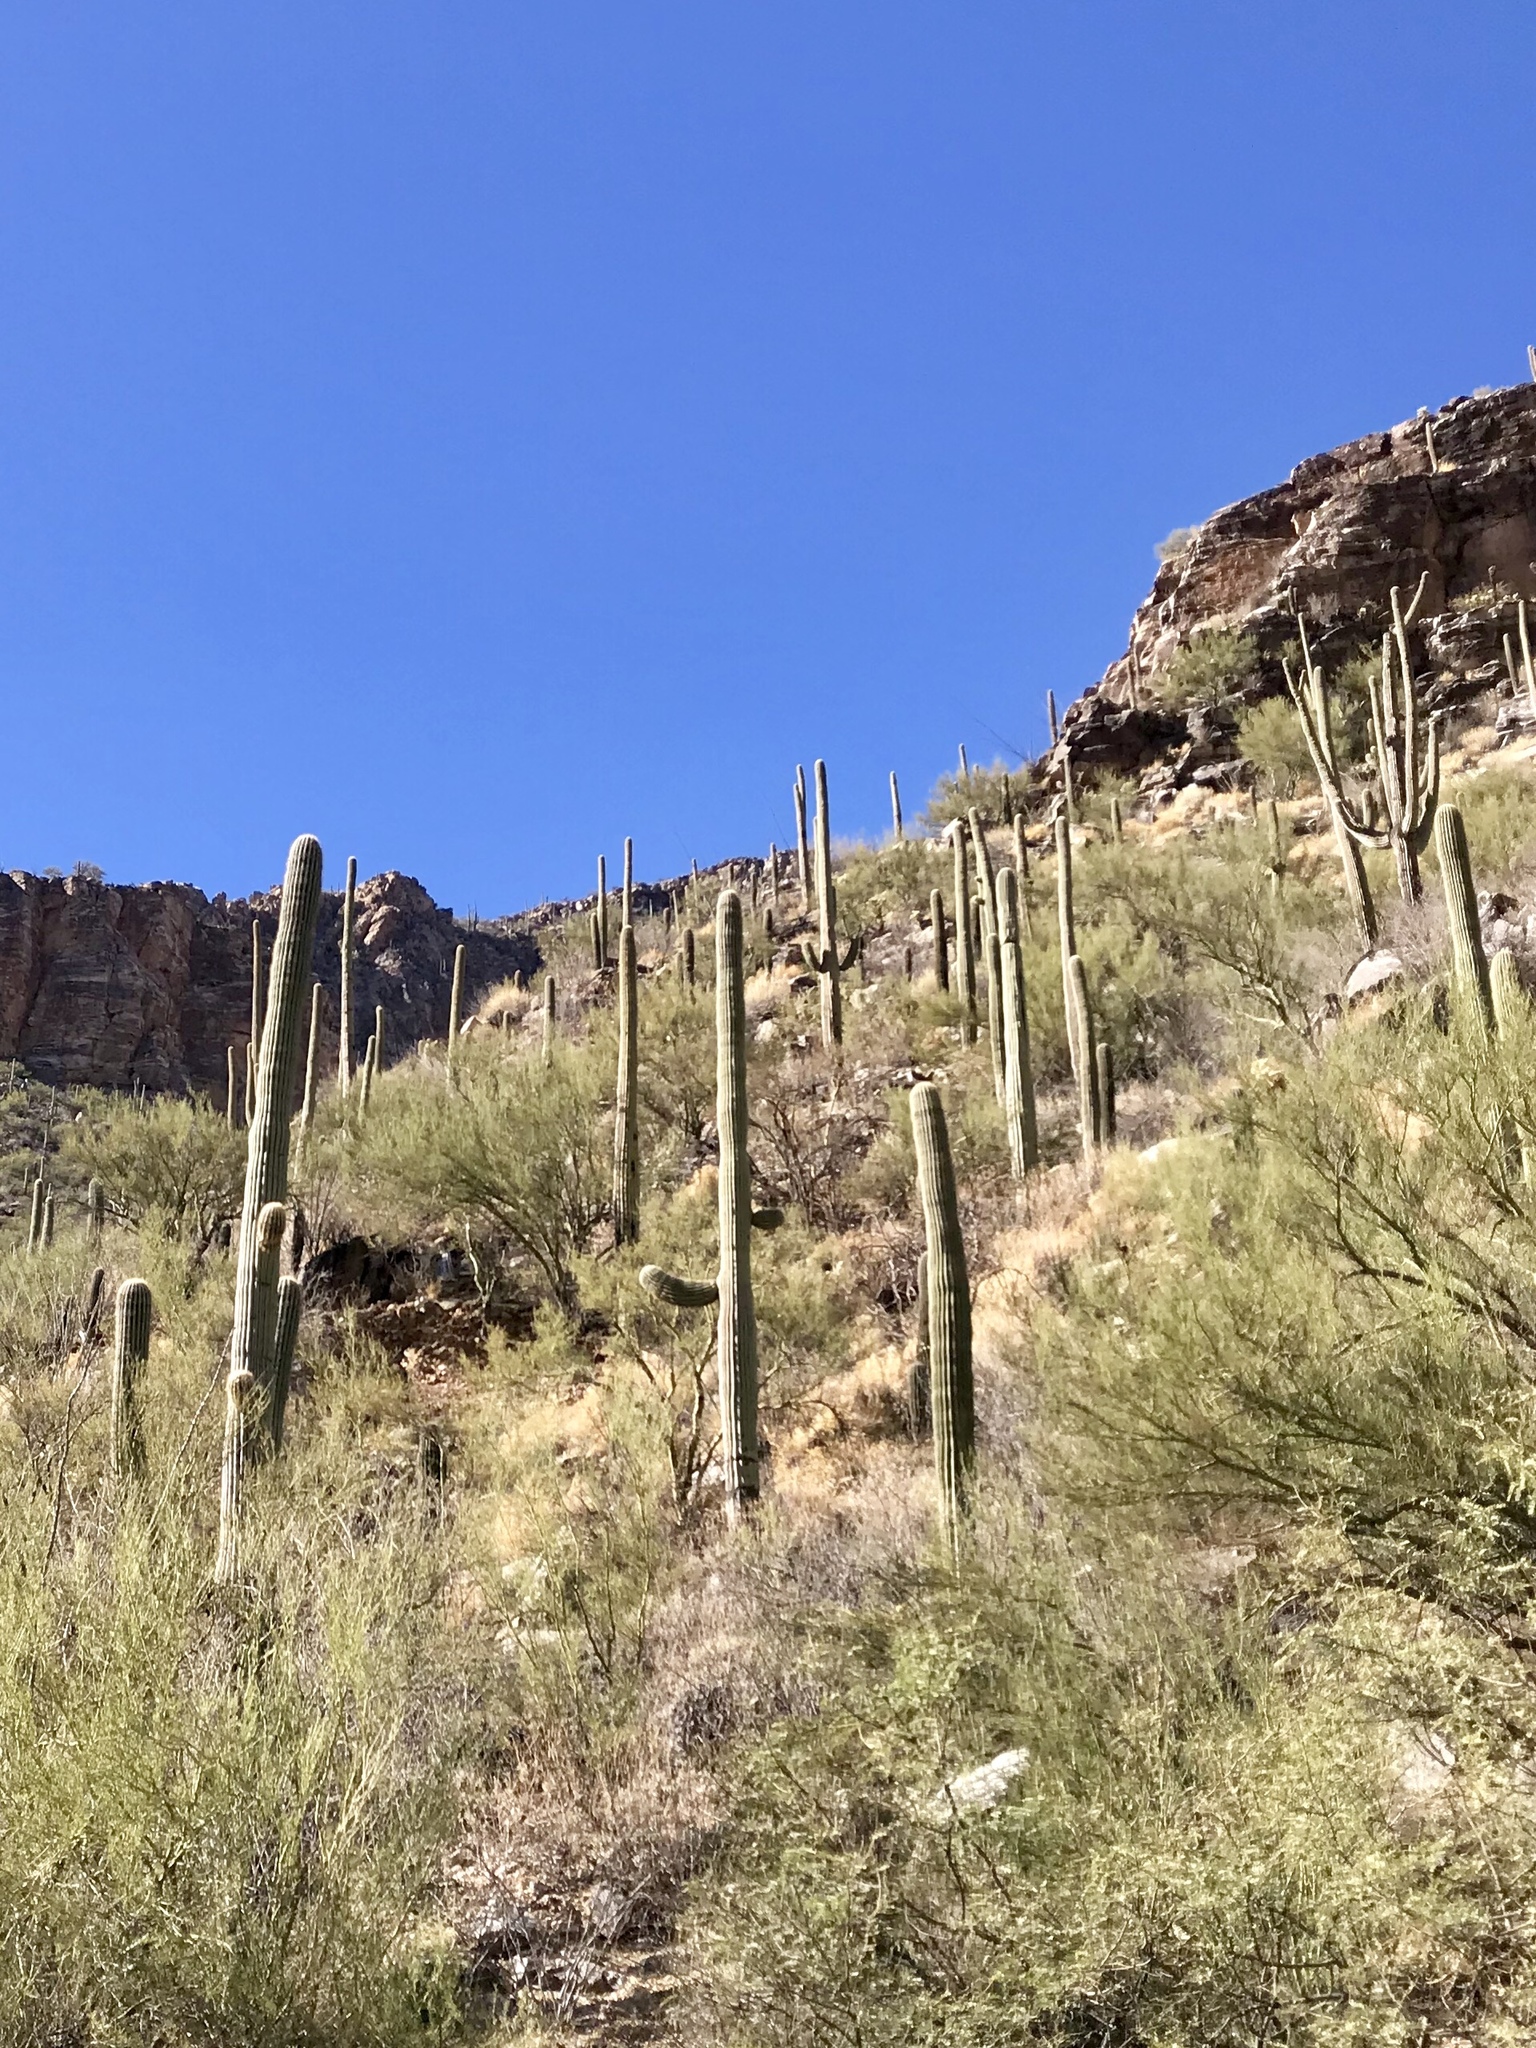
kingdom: Plantae
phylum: Tracheophyta
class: Magnoliopsida
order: Caryophyllales
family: Cactaceae
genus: Carnegiea
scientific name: Carnegiea gigantea
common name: Saguaro
